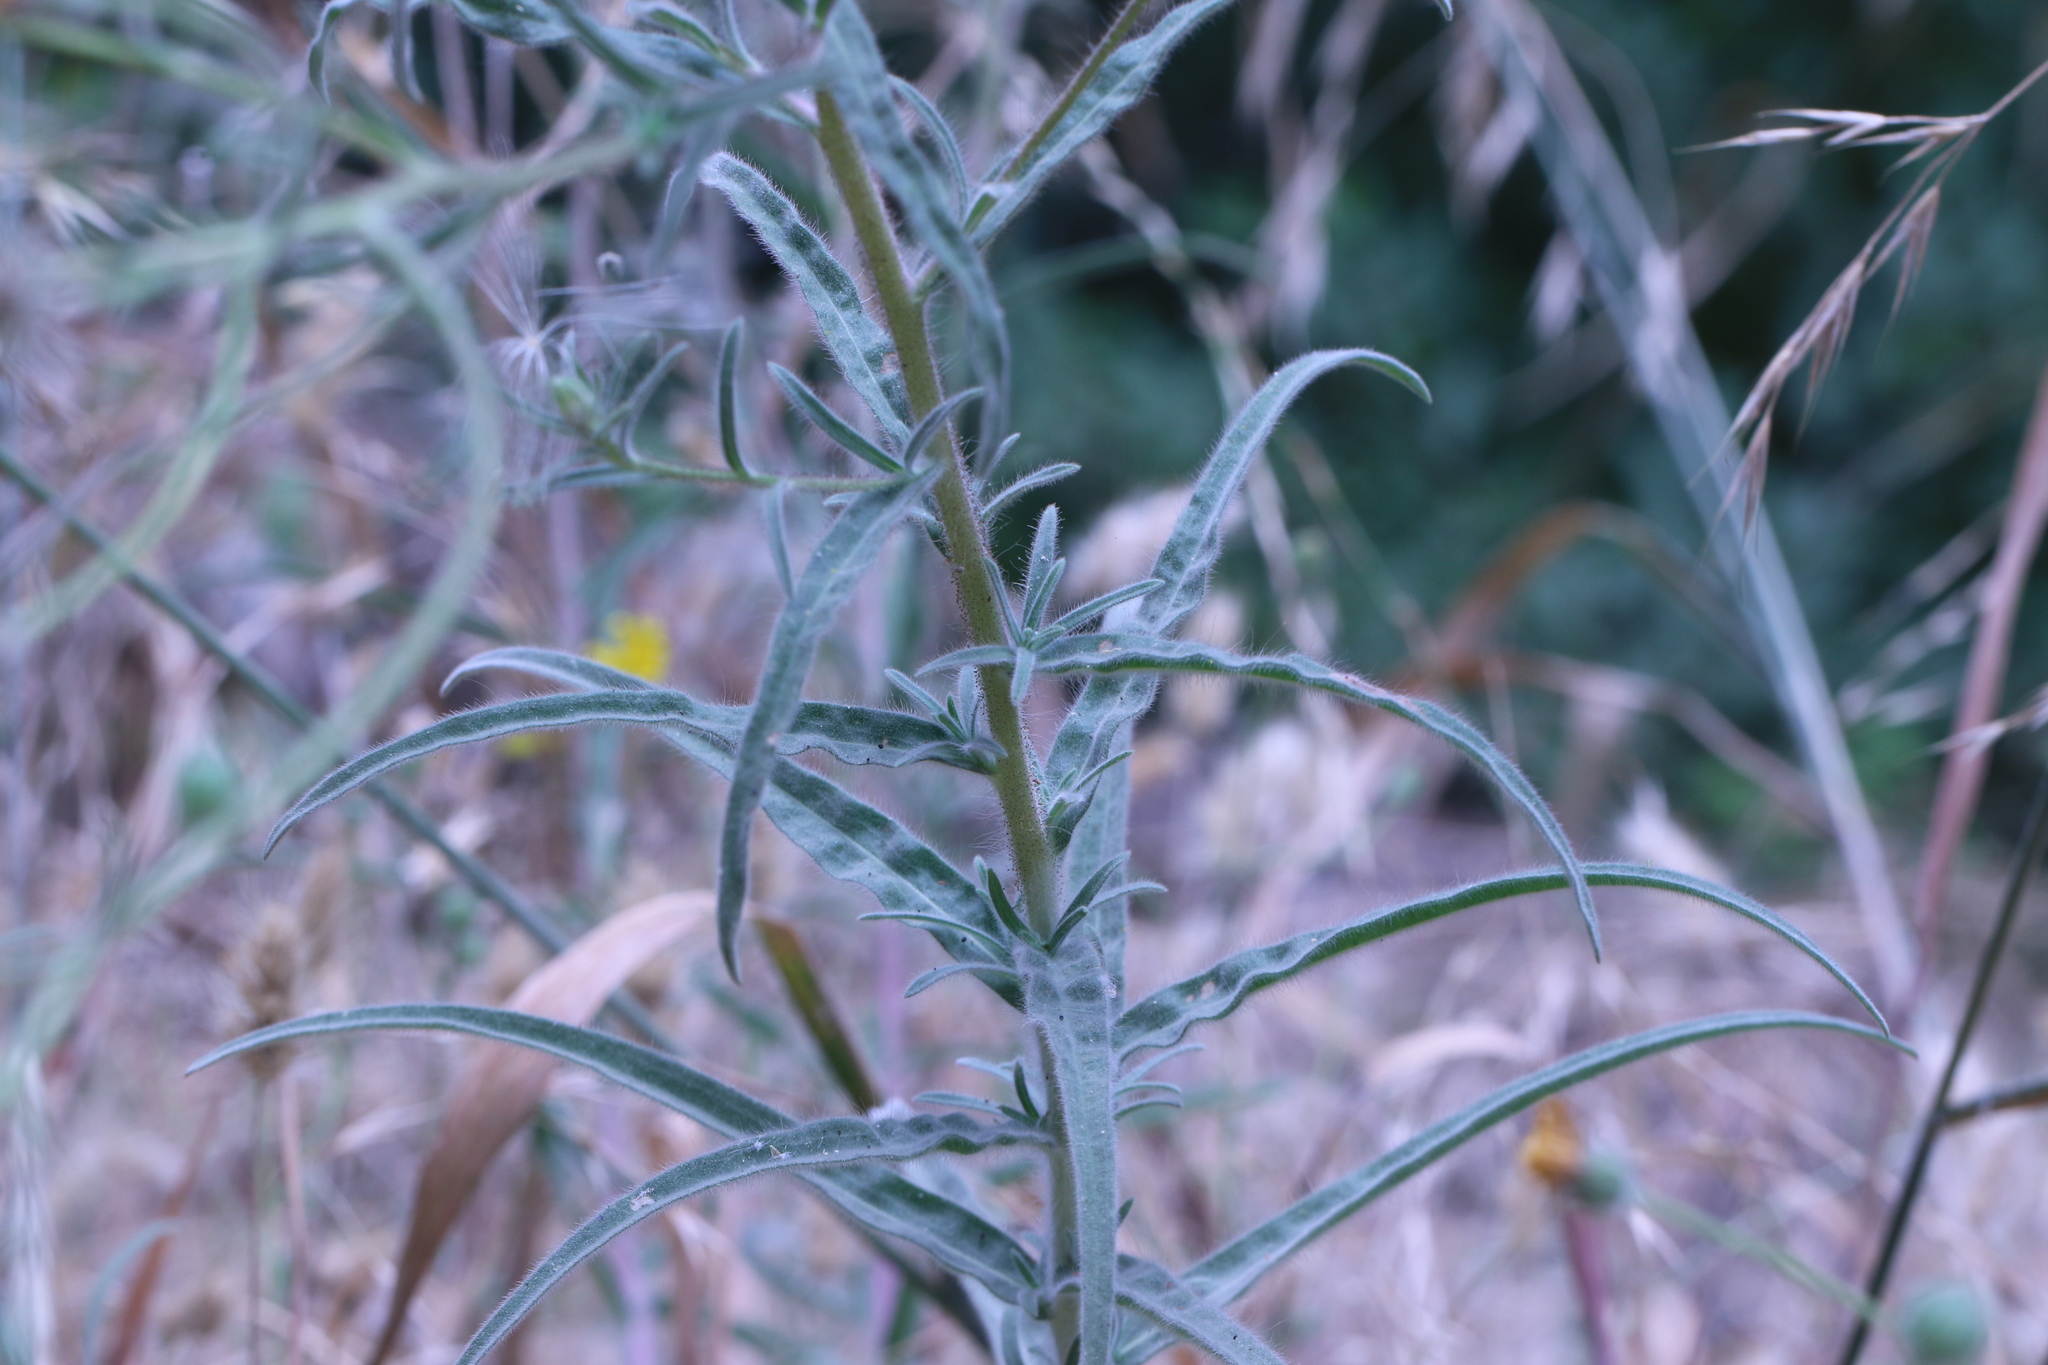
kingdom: Plantae
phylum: Tracheophyta
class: Magnoliopsida
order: Asterales
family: Asteraceae
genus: Madia
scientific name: Madia elegans
